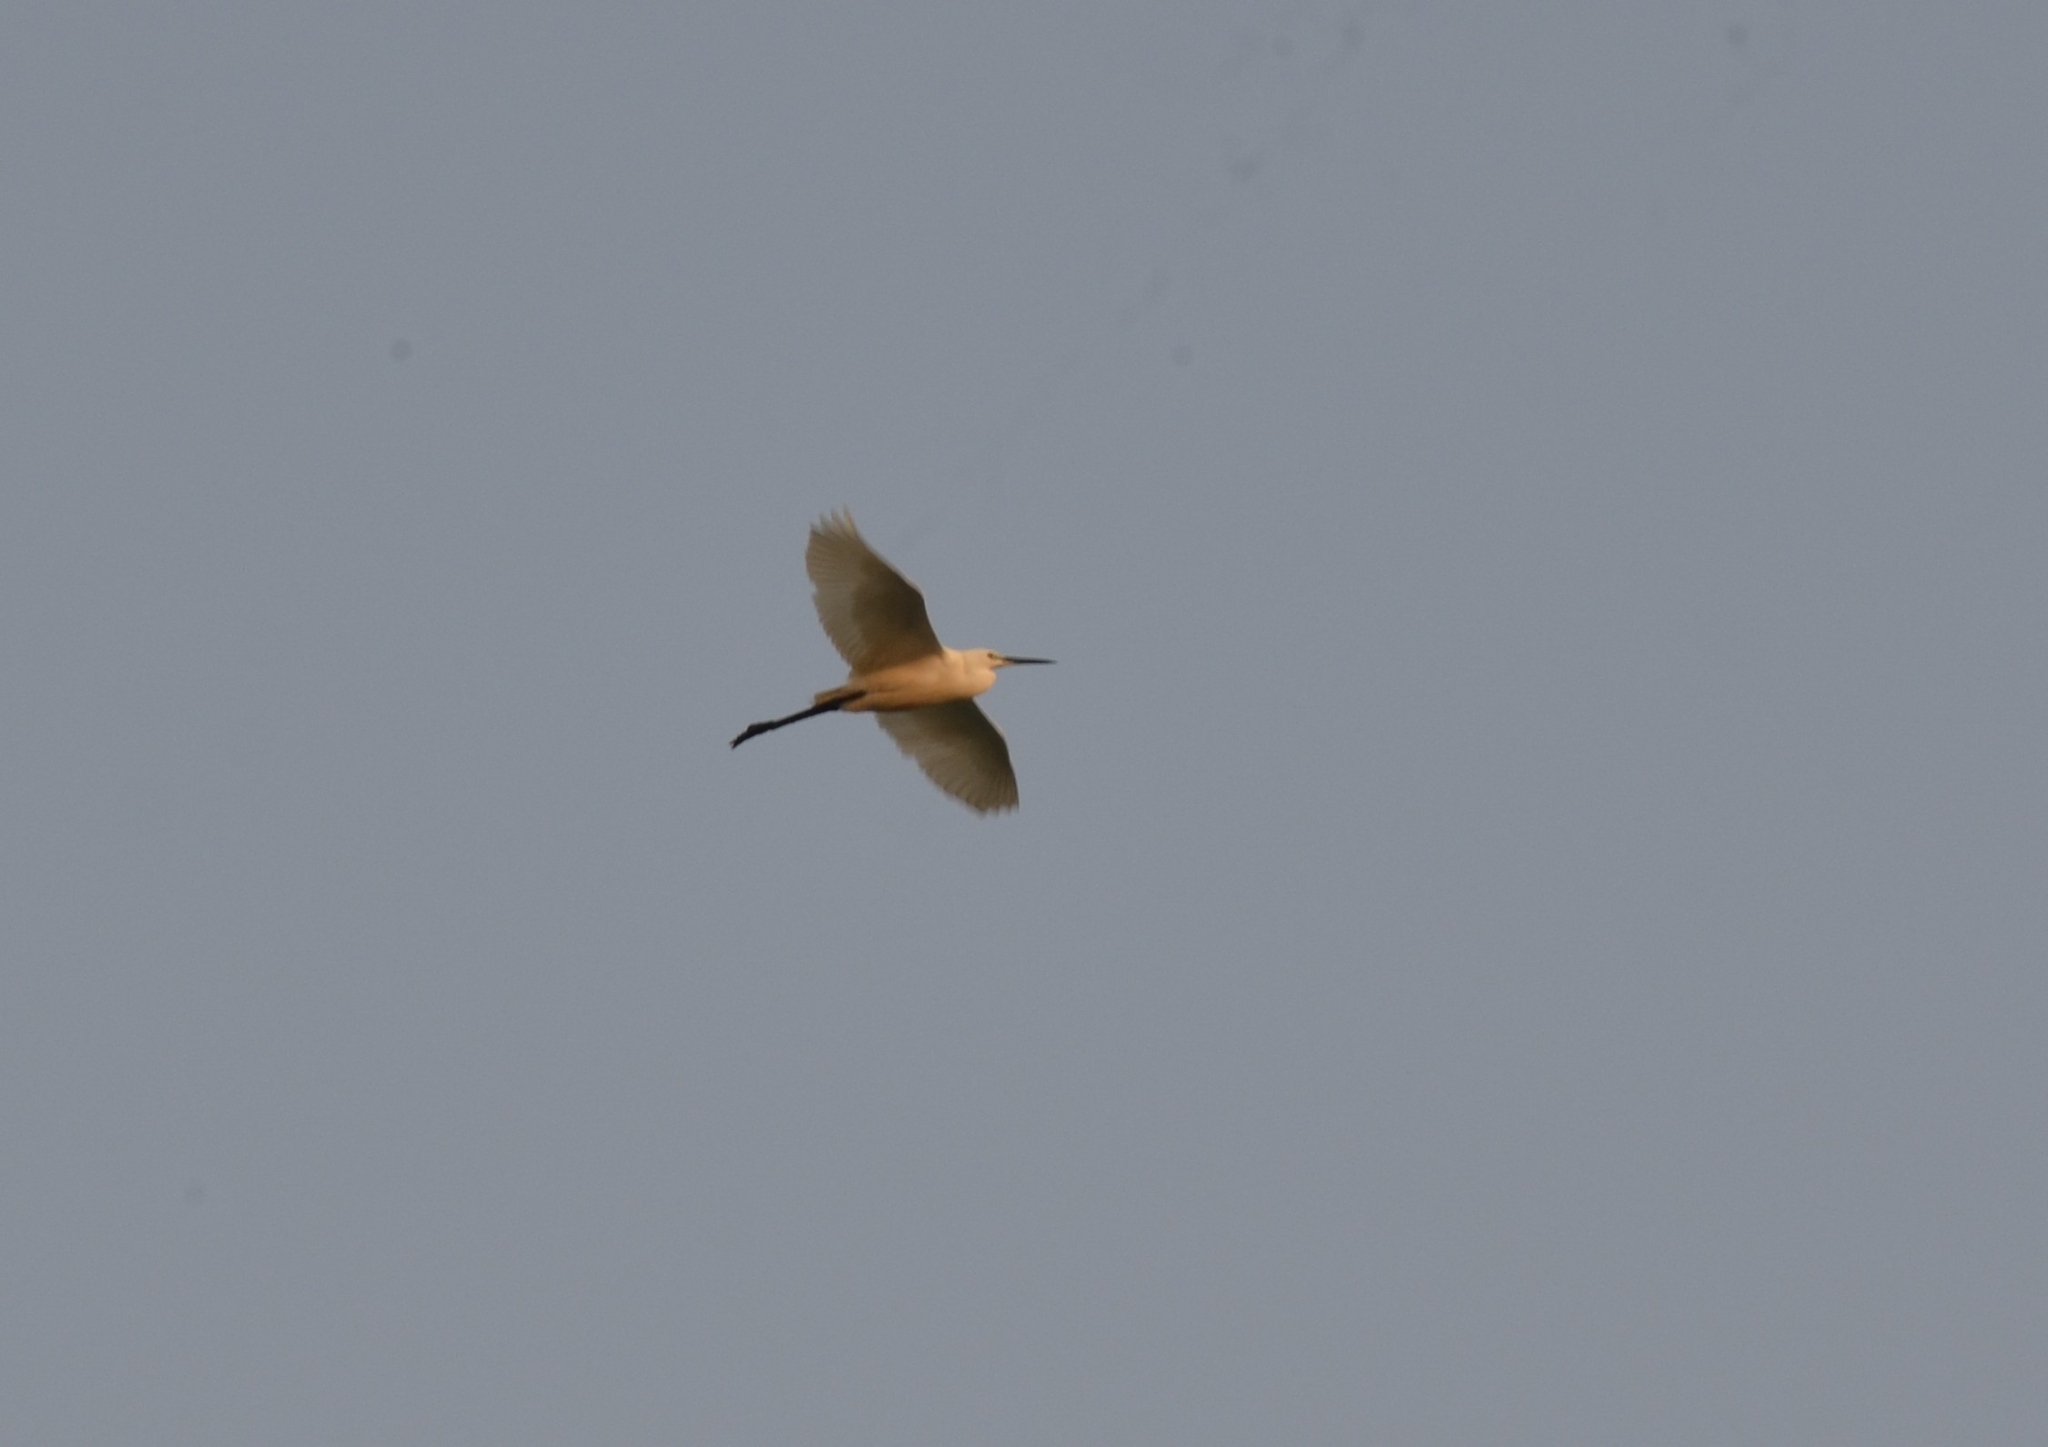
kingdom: Animalia
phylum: Chordata
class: Aves
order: Pelecaniformes
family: Ardeidae
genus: Egretta
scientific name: Egretta garzetta
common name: Little egret
